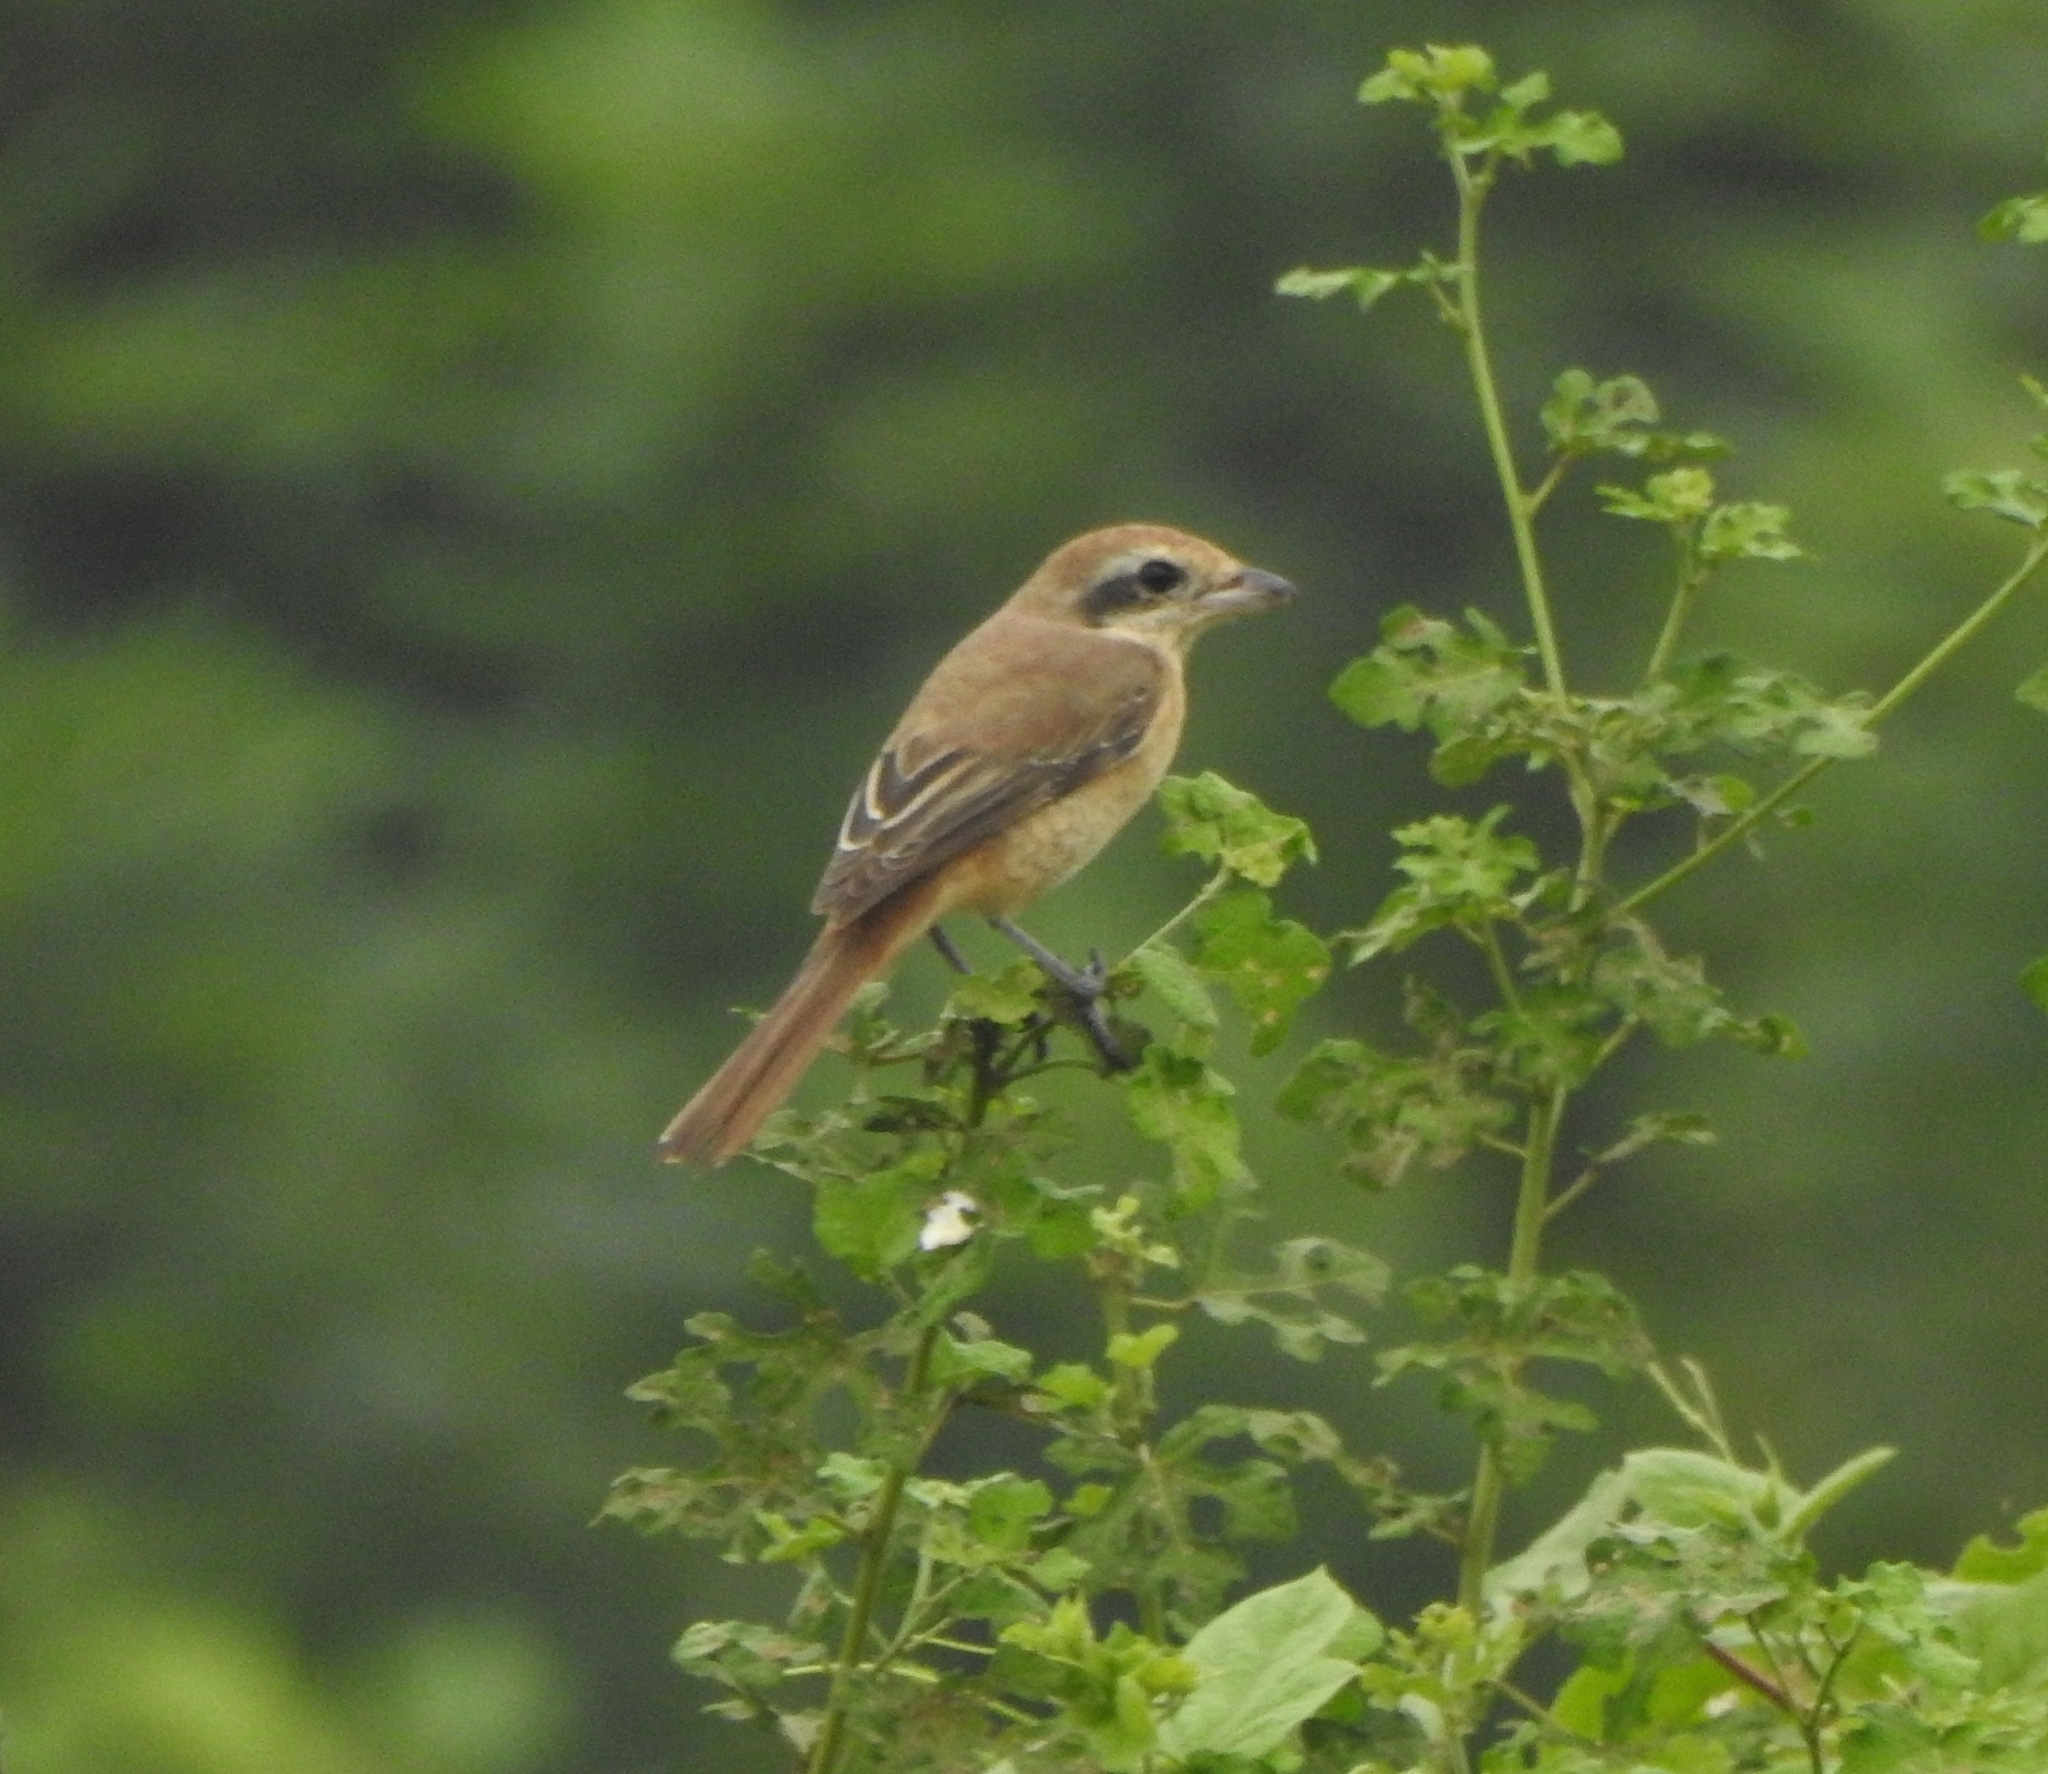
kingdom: Animalia
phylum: Chordata
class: Aves
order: Passeriformes
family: Laniidae
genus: Lanius
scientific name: Lanius cristatus
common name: Brown shrike
